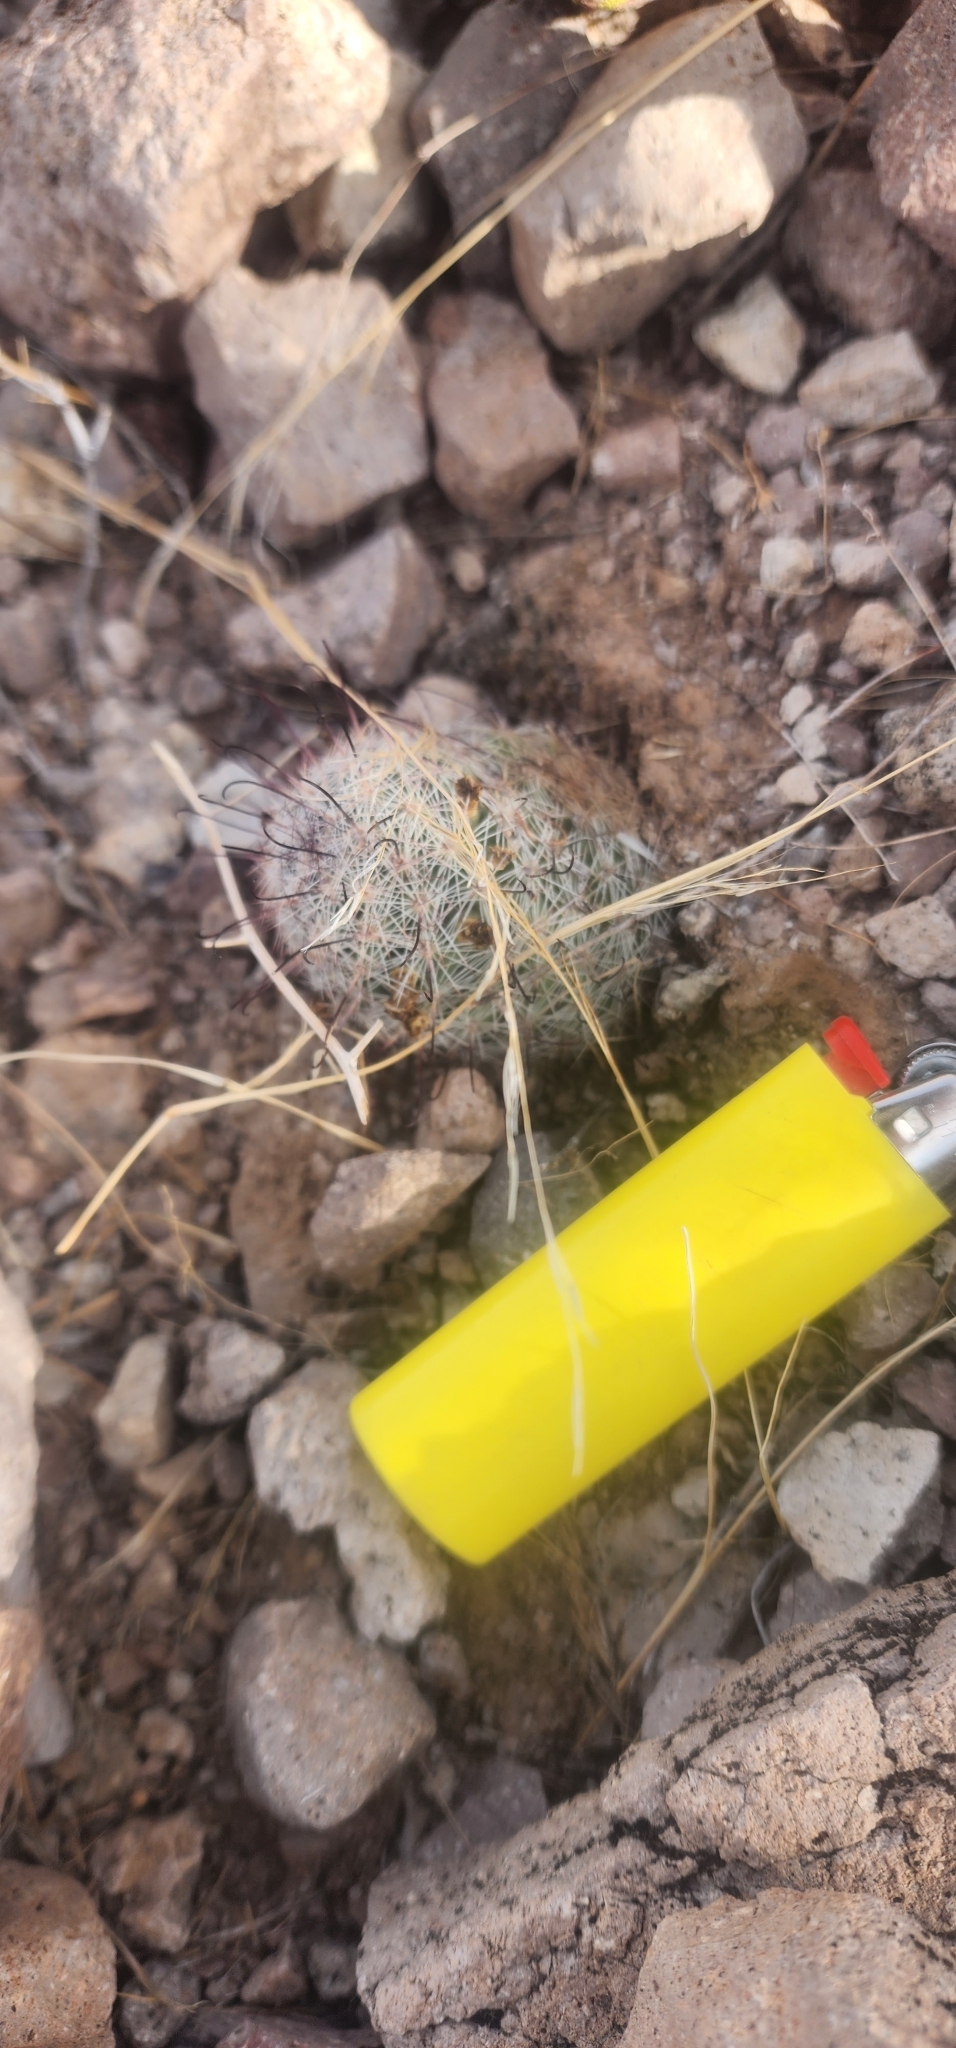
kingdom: Plantae
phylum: Tracheophyta
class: Magnoliopsida
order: Caryophyllales
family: Cactaceae
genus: Cochemiea
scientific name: Cochemiea grahamii
